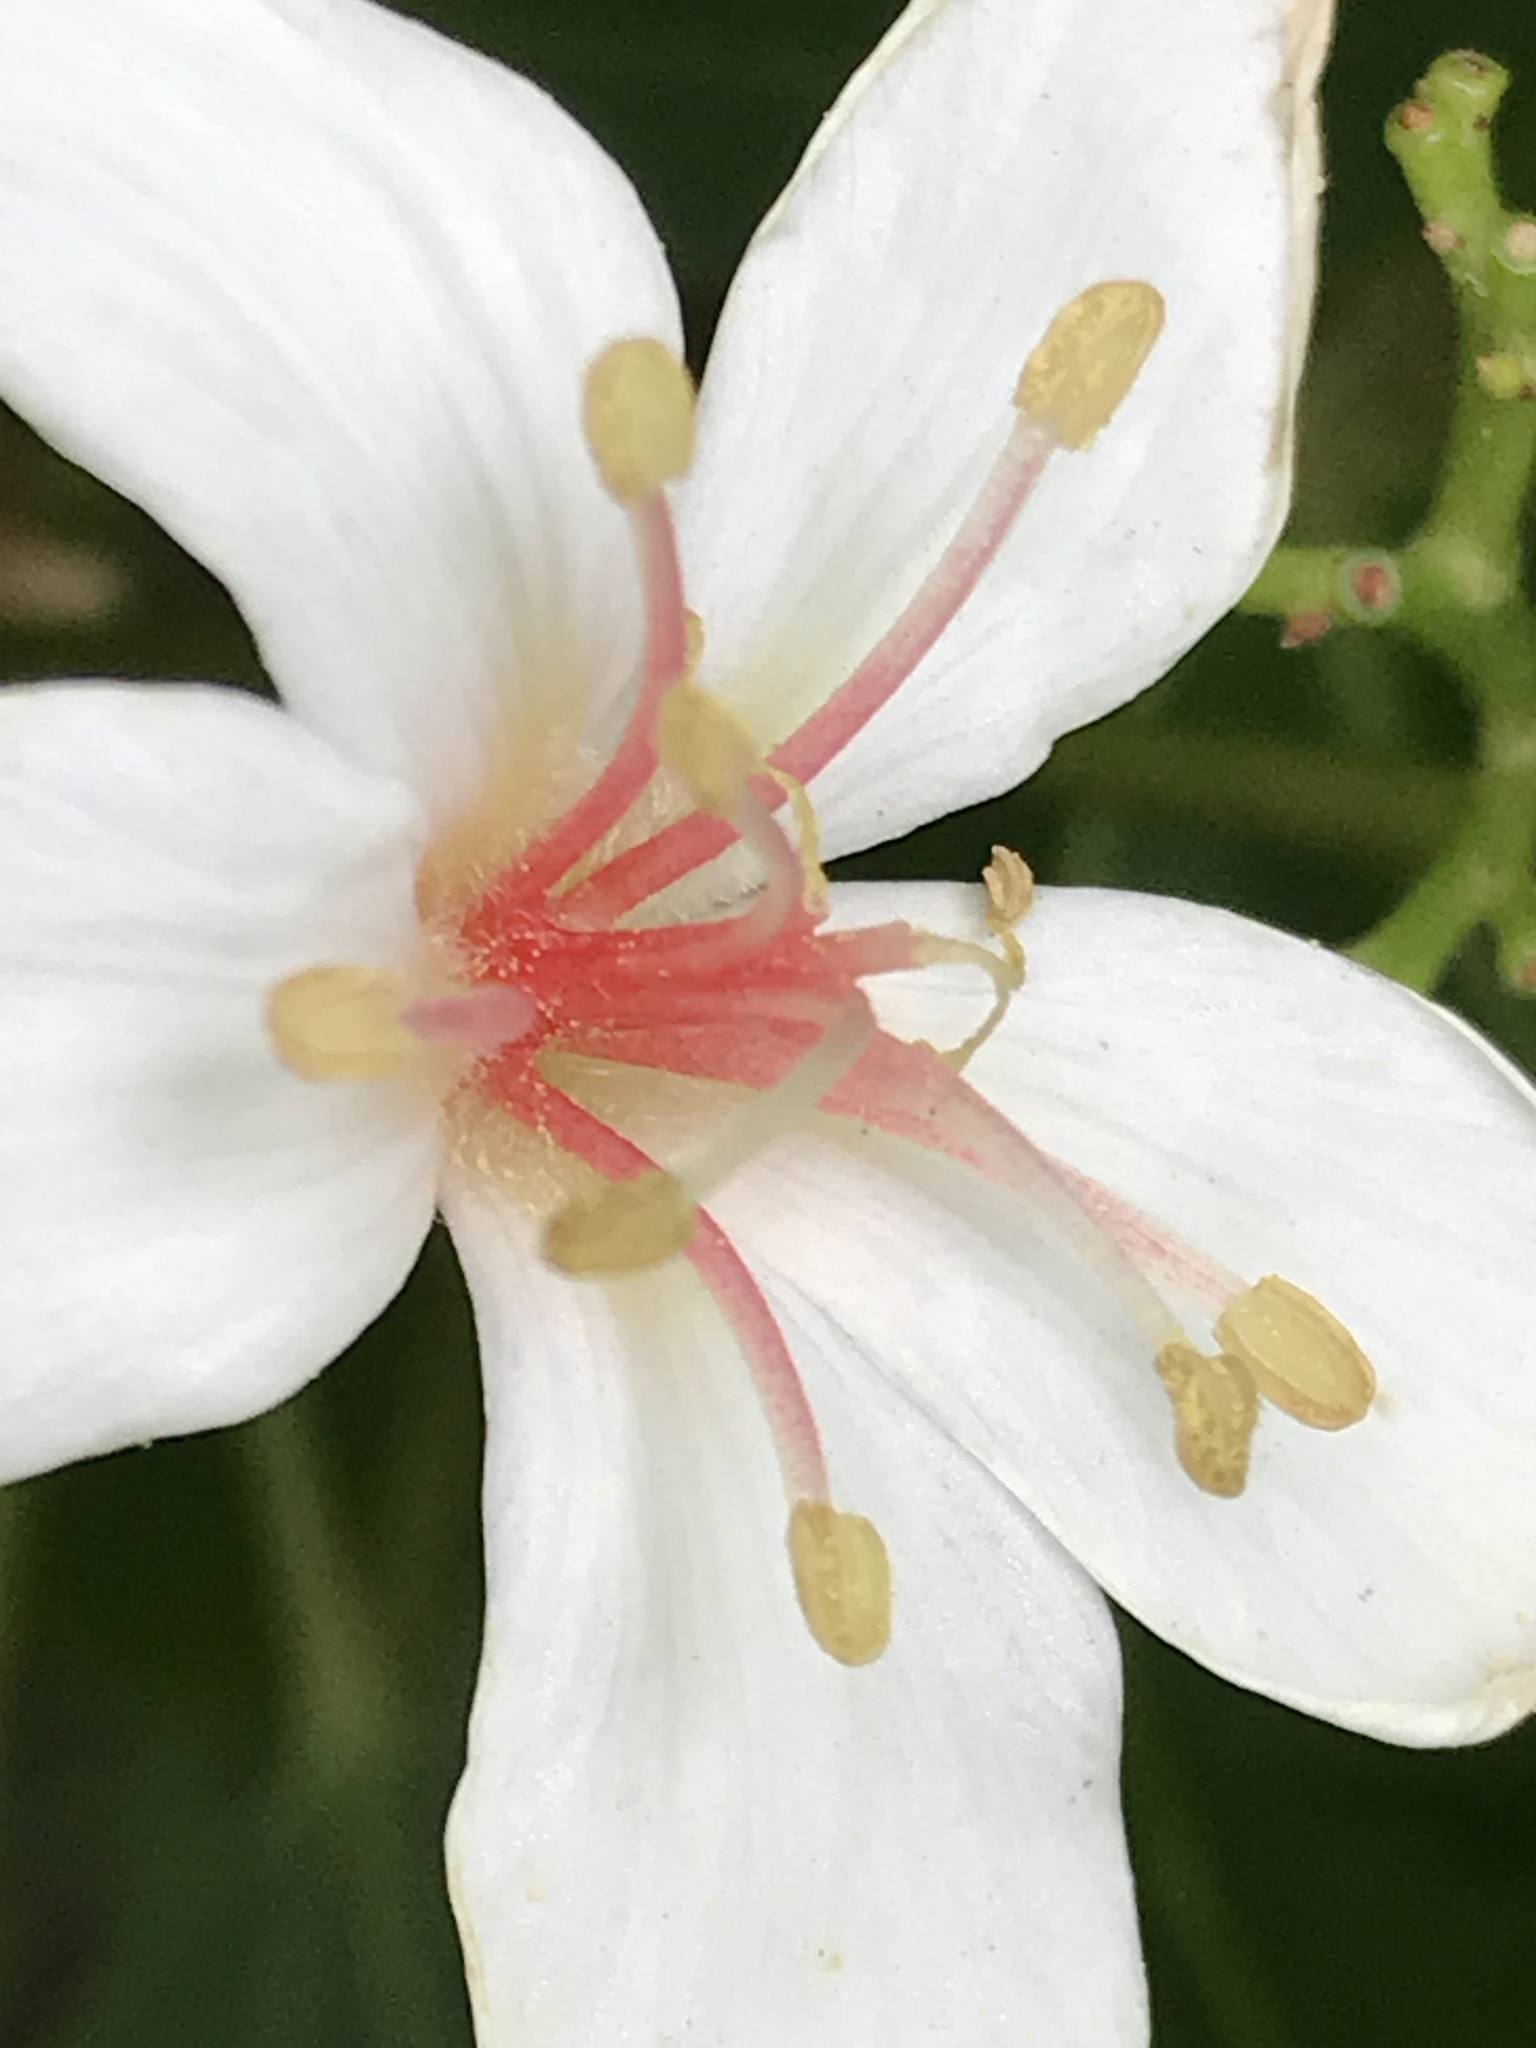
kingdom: Plantae
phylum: Tracheophyta
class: Magnoliopsida
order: Malpighiales
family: Euphorbiaceae
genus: Vernicia
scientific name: Vernicia montana
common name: Mu oil tree
